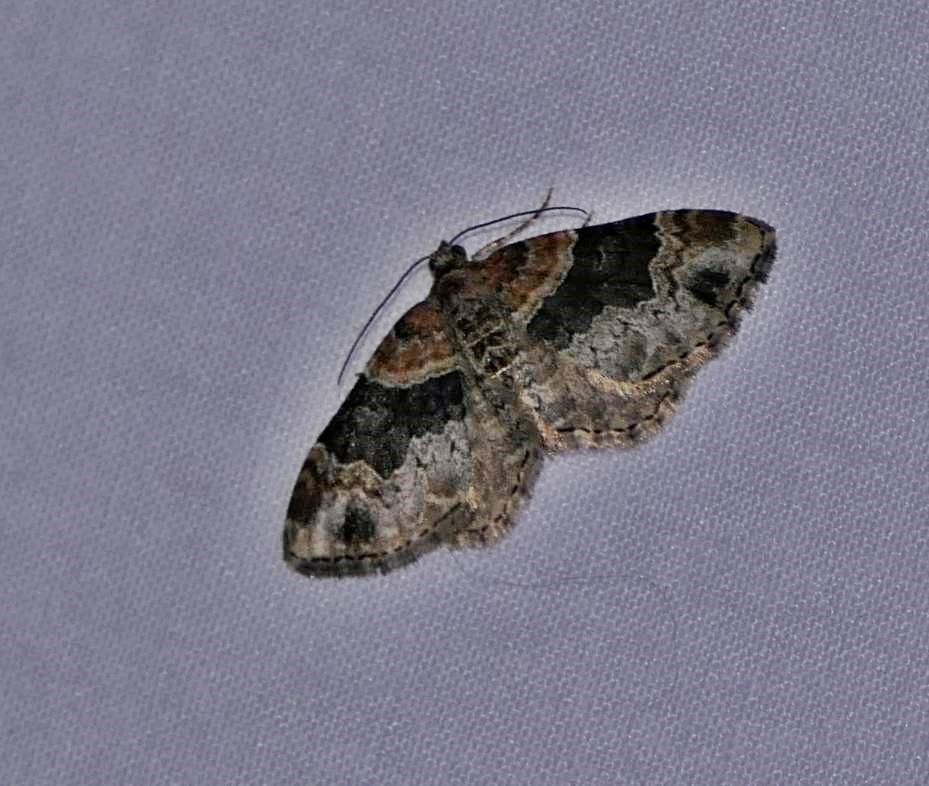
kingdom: Animalia
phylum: Arthropoda
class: Insecta
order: Lepidoptera
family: Geometridae
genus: Xanthorhoe
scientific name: Xanthorhoe ferrugata
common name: Dark-barred twin-spot carpet
